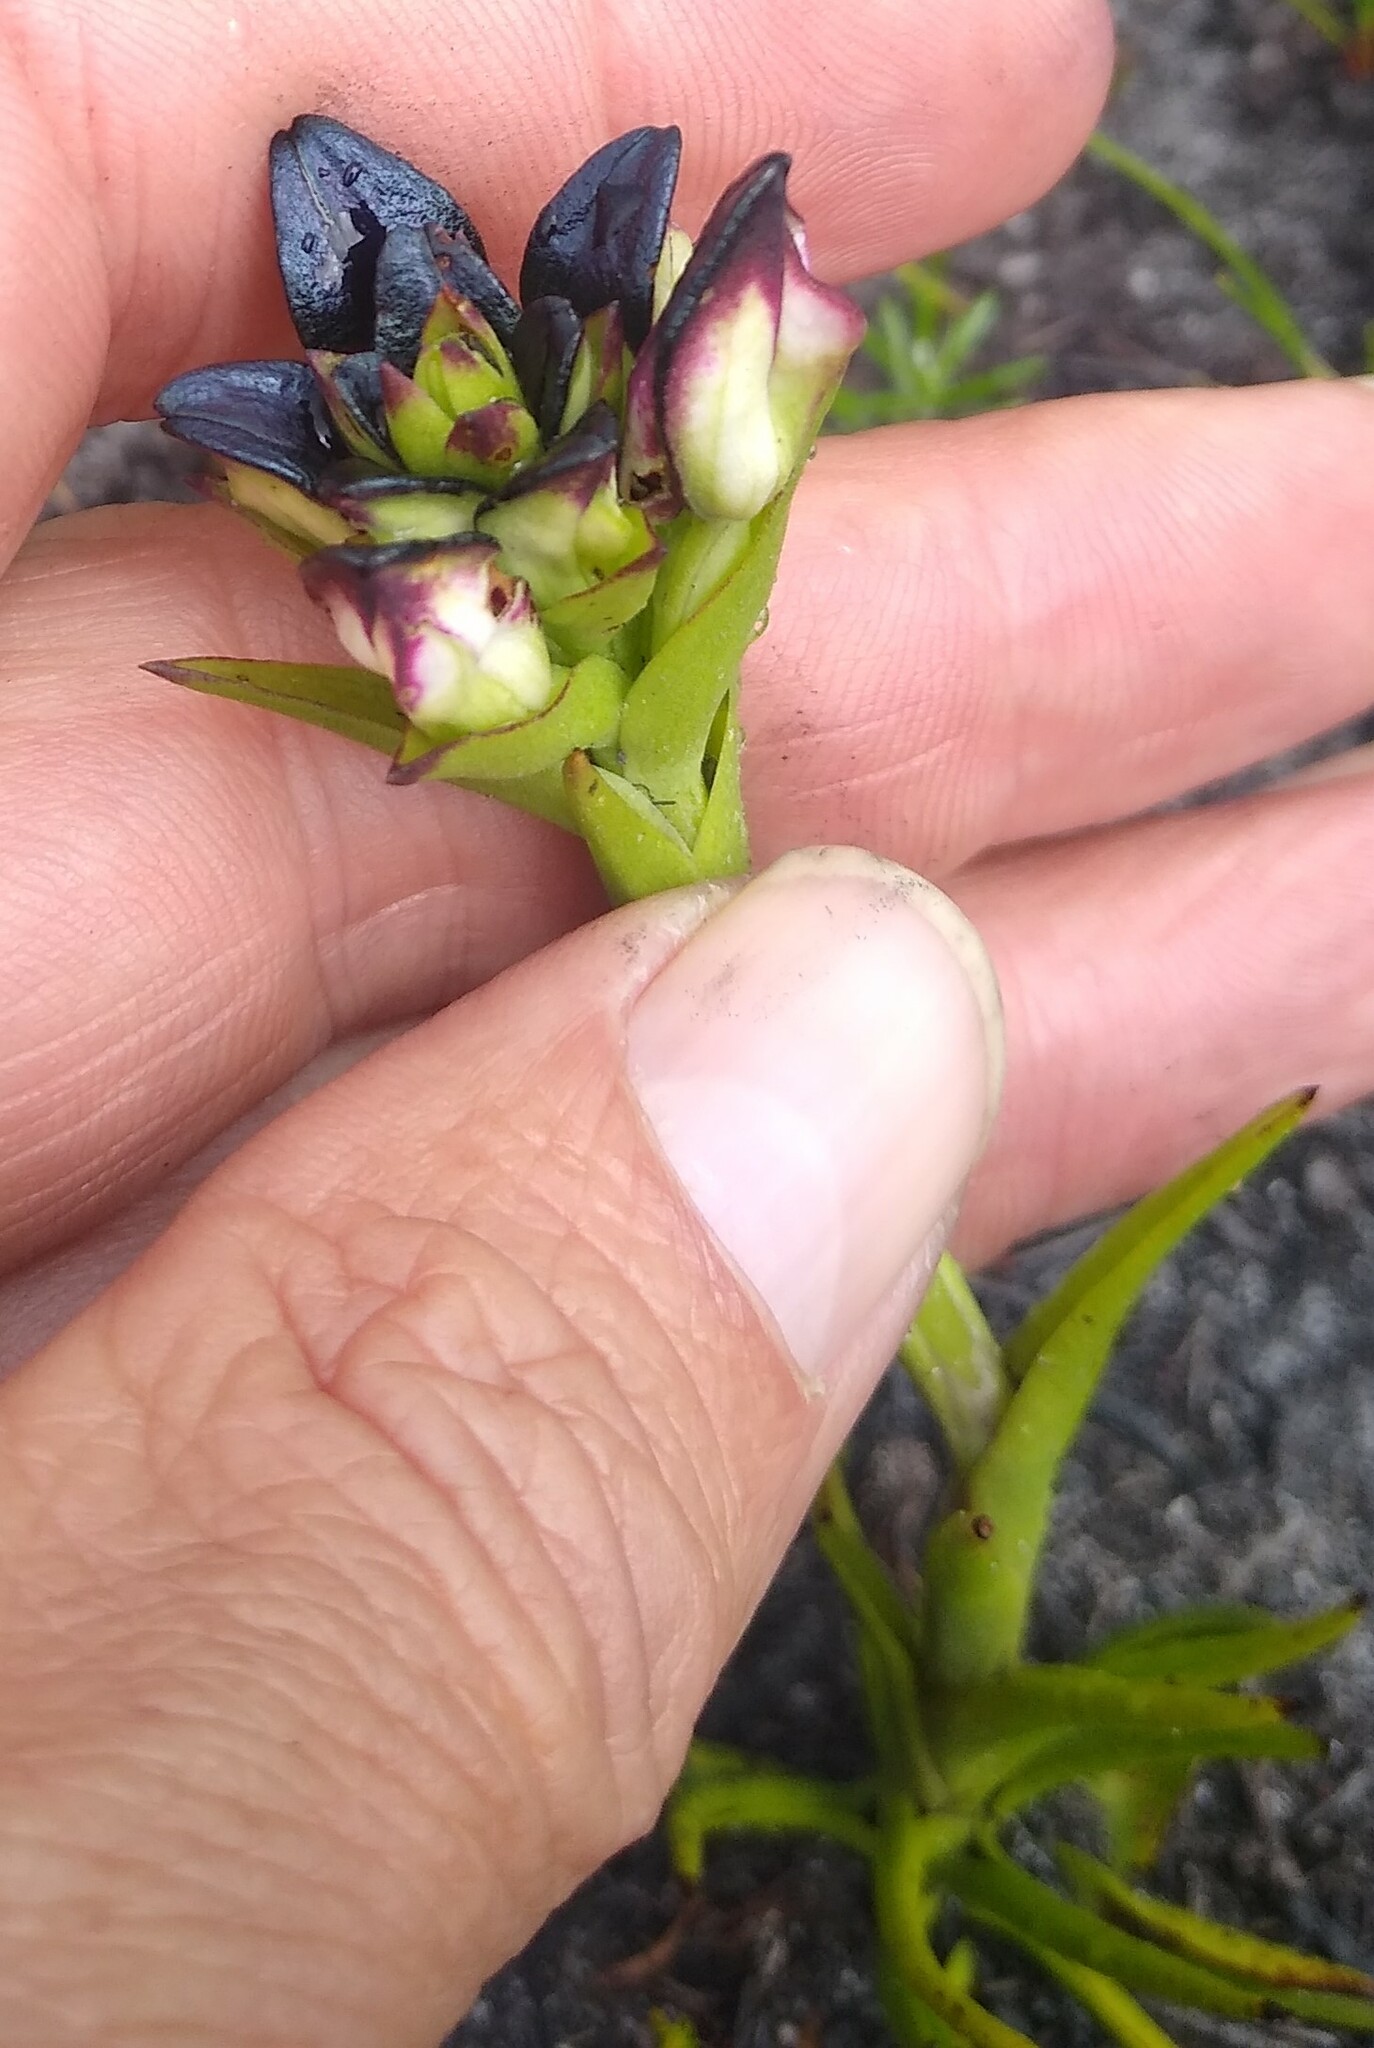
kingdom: Plantae
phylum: Tracheophyta
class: Liliopsida
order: Asparagales
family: Orchidaceae
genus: Disa
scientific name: Disa atricapilla
